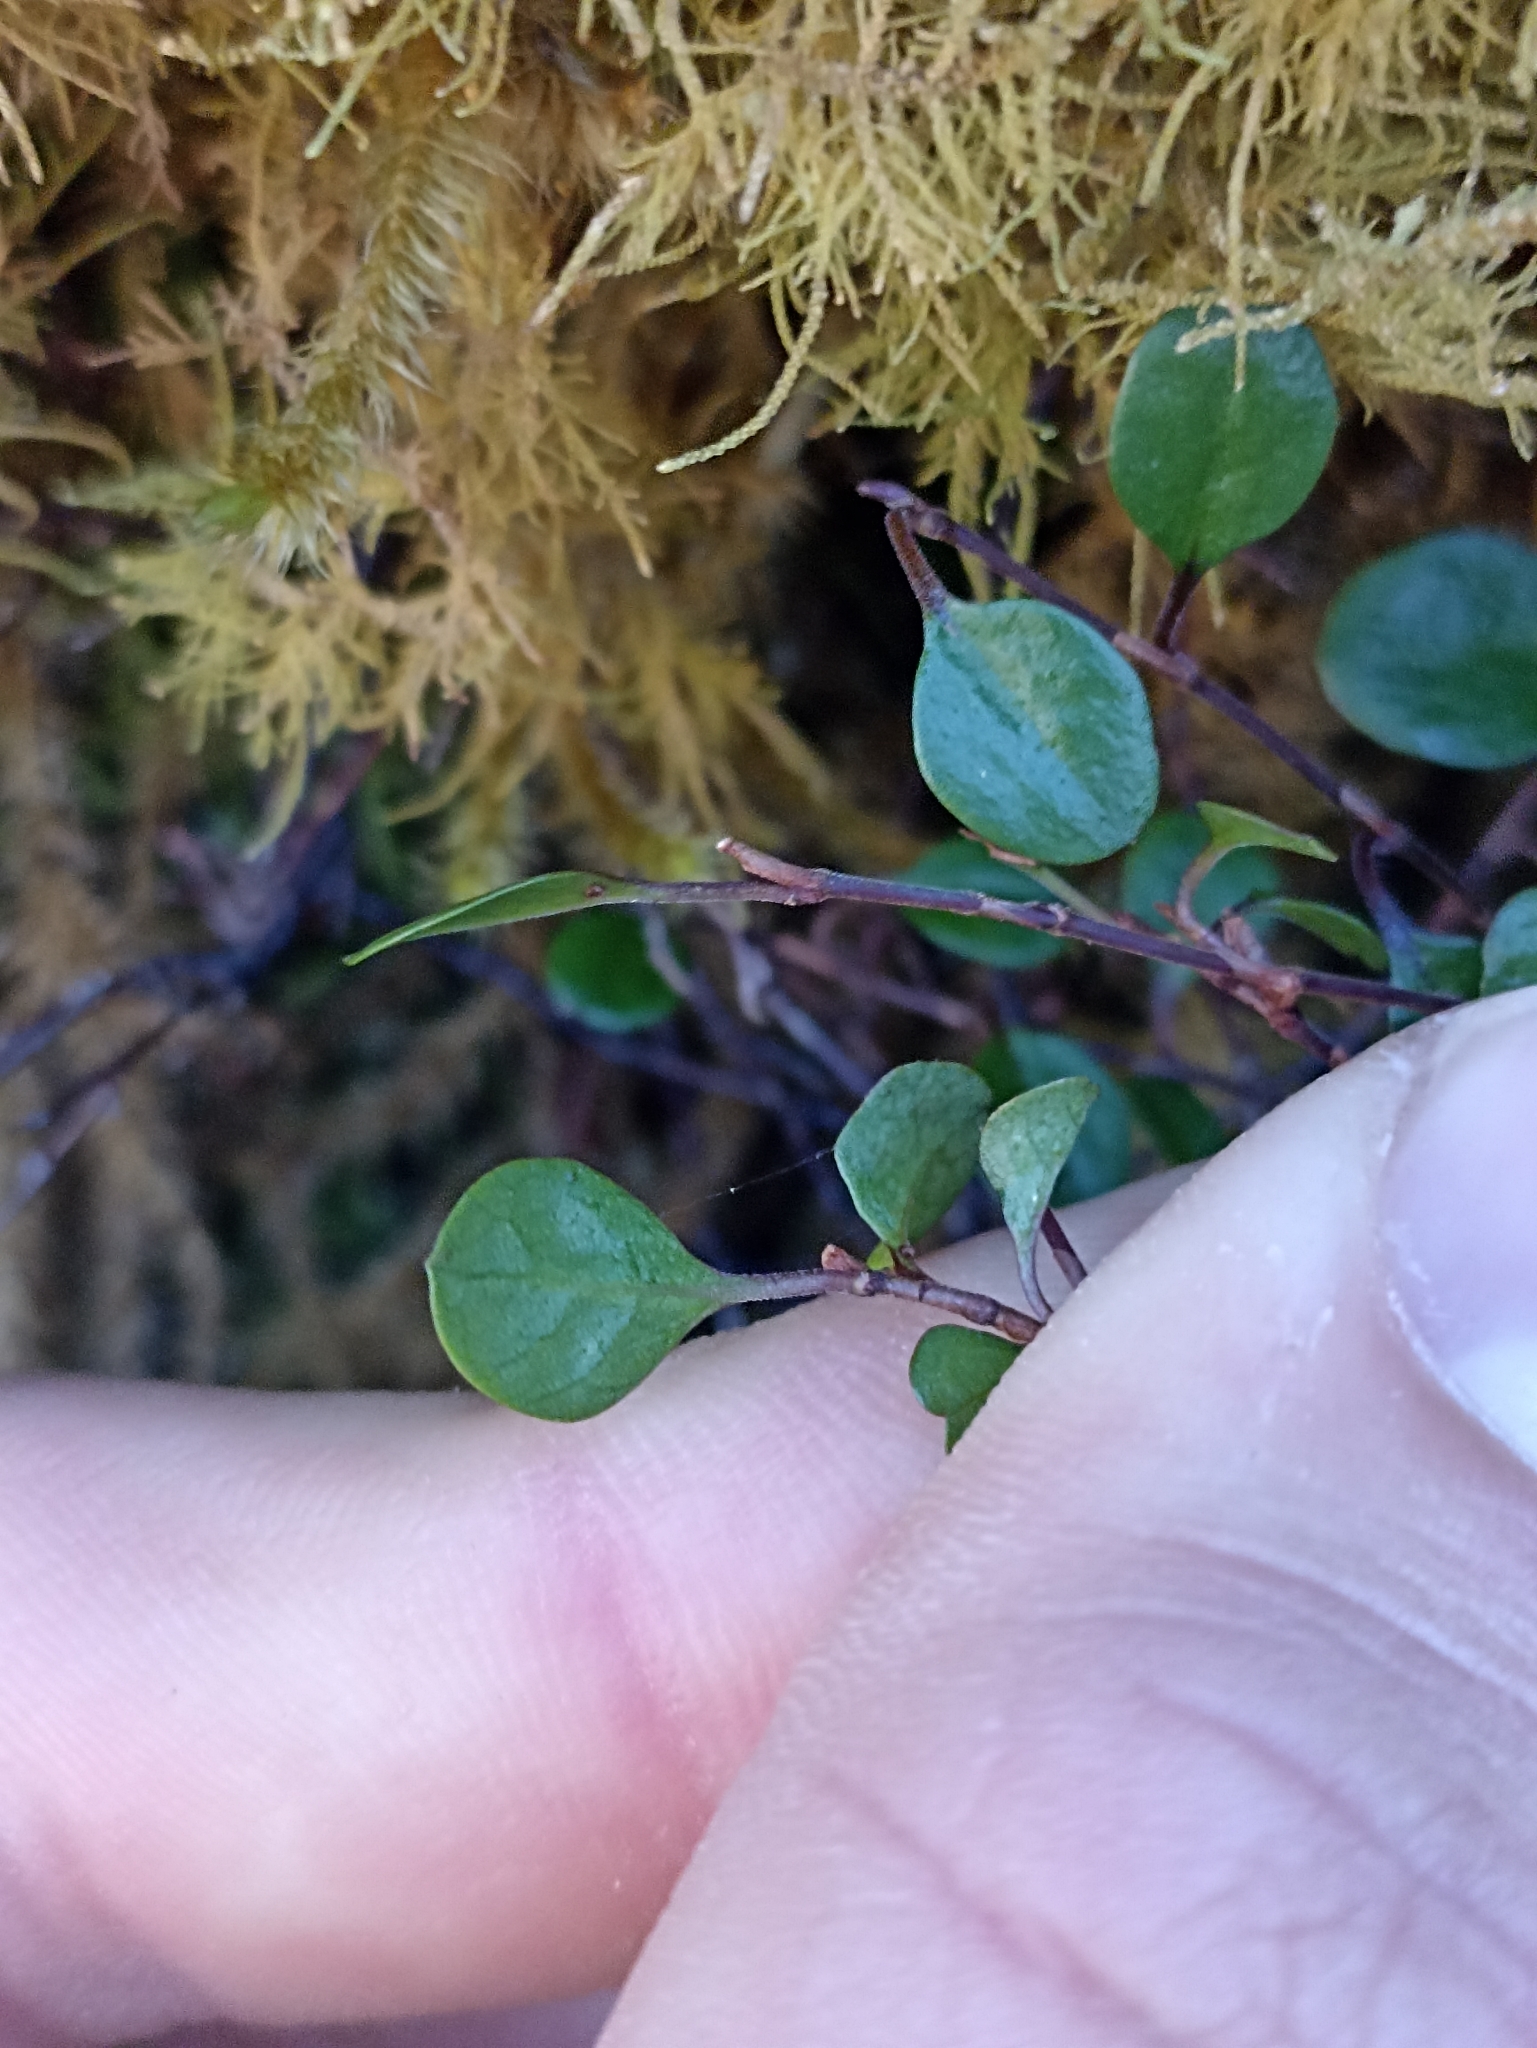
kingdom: Plantae
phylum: Tracheophyta
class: Magnoliopsida
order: Caryophyllales
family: Polygonaceae
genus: Muehlenbeckia
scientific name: Muehlenbeckia axillaris
